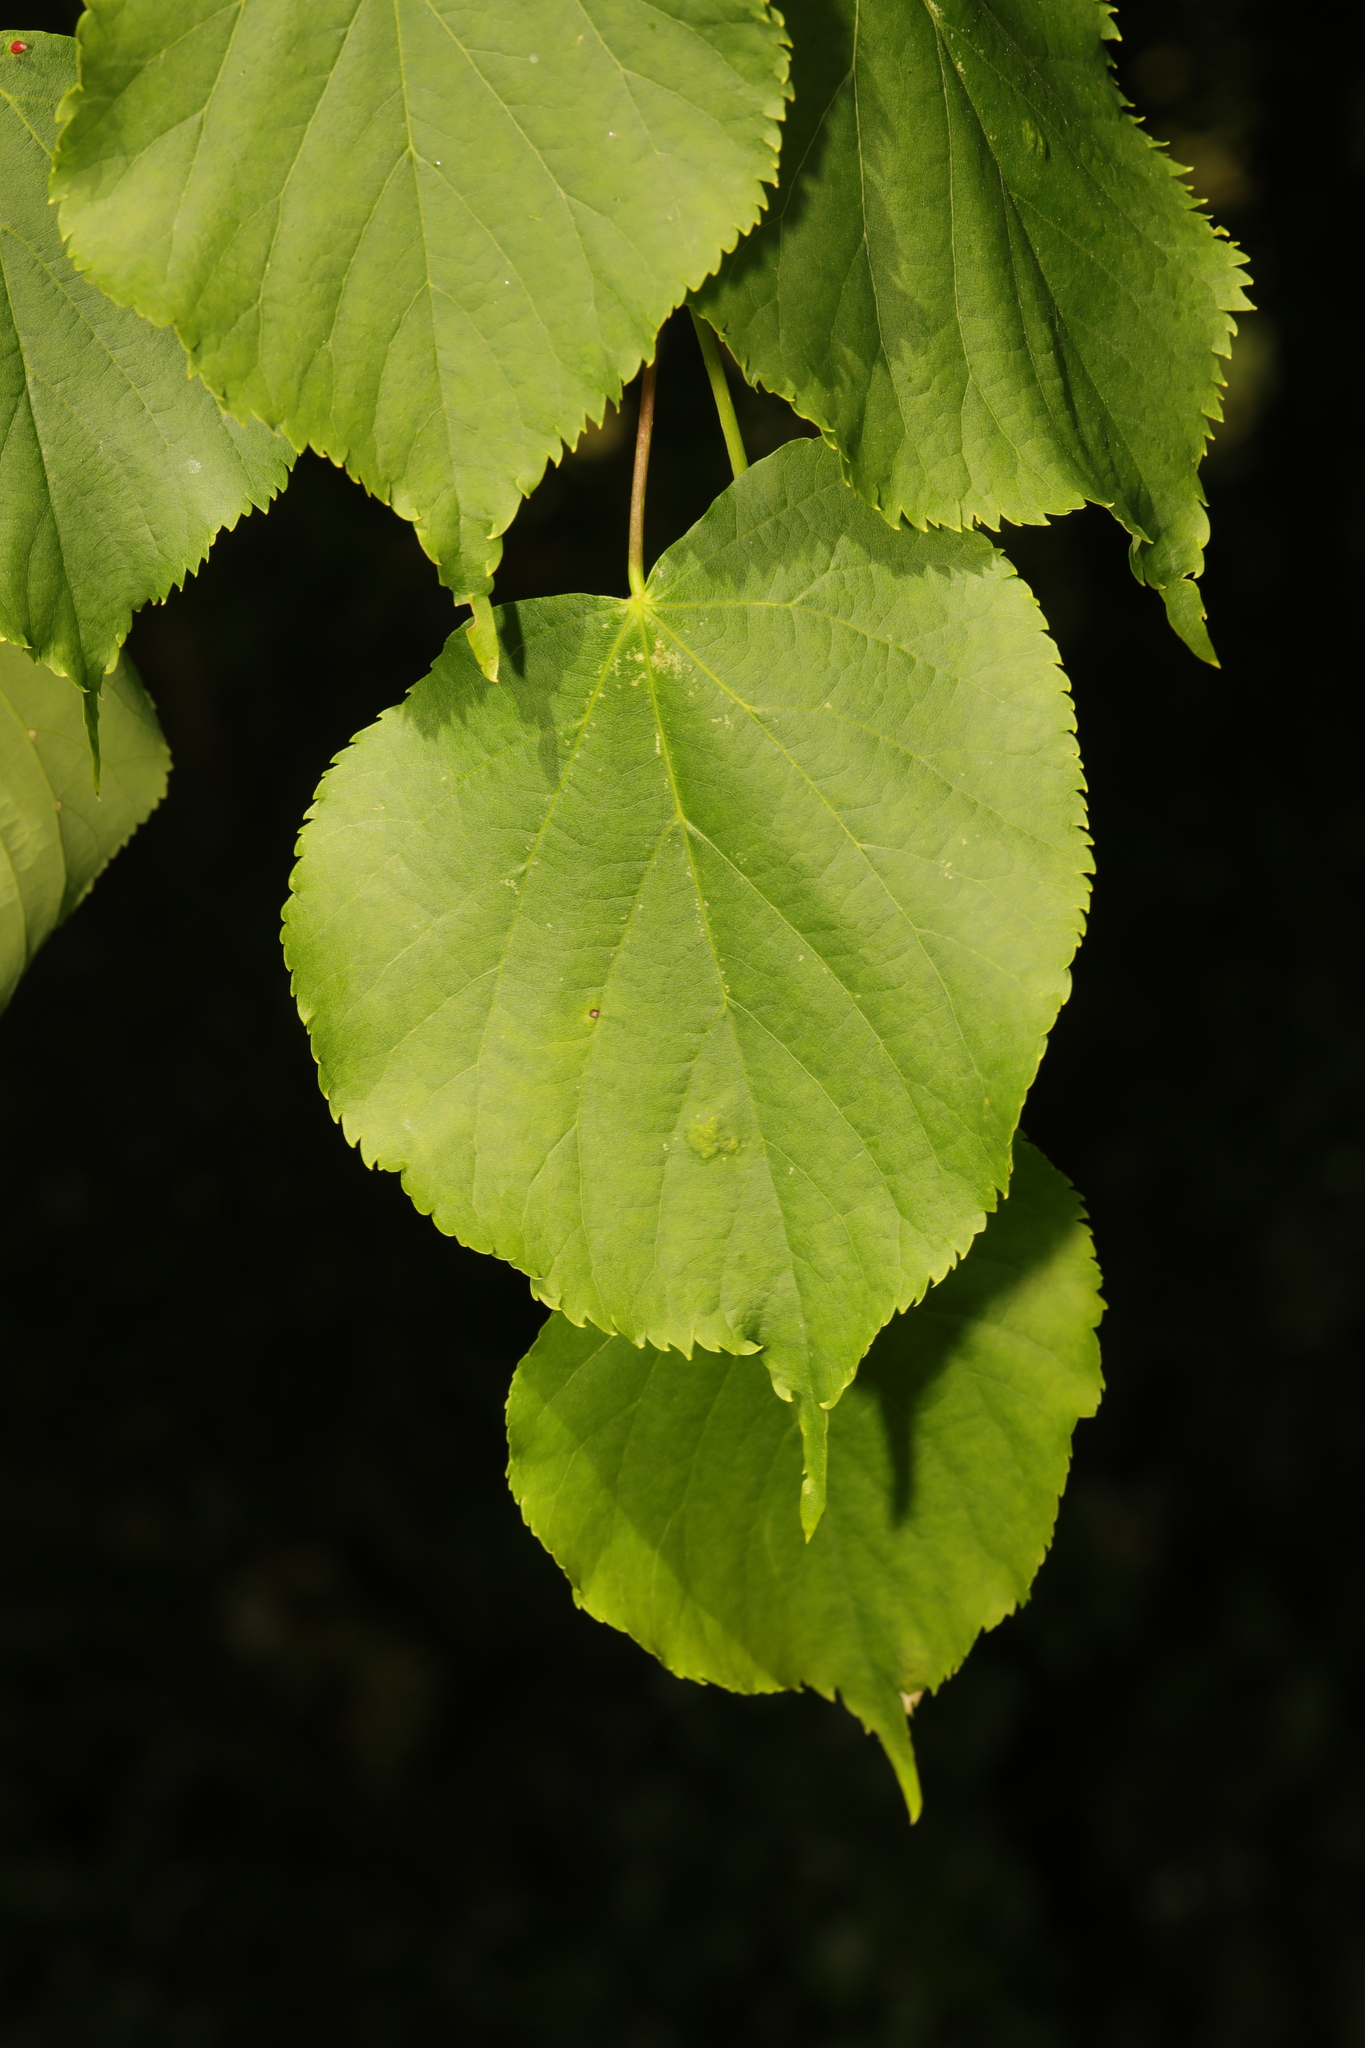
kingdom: Plantae
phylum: Tracheophyta
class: Magnoliopsida
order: Malvales
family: Malvaceae
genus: Tilia
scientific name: Tilia europaea
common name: European linden
